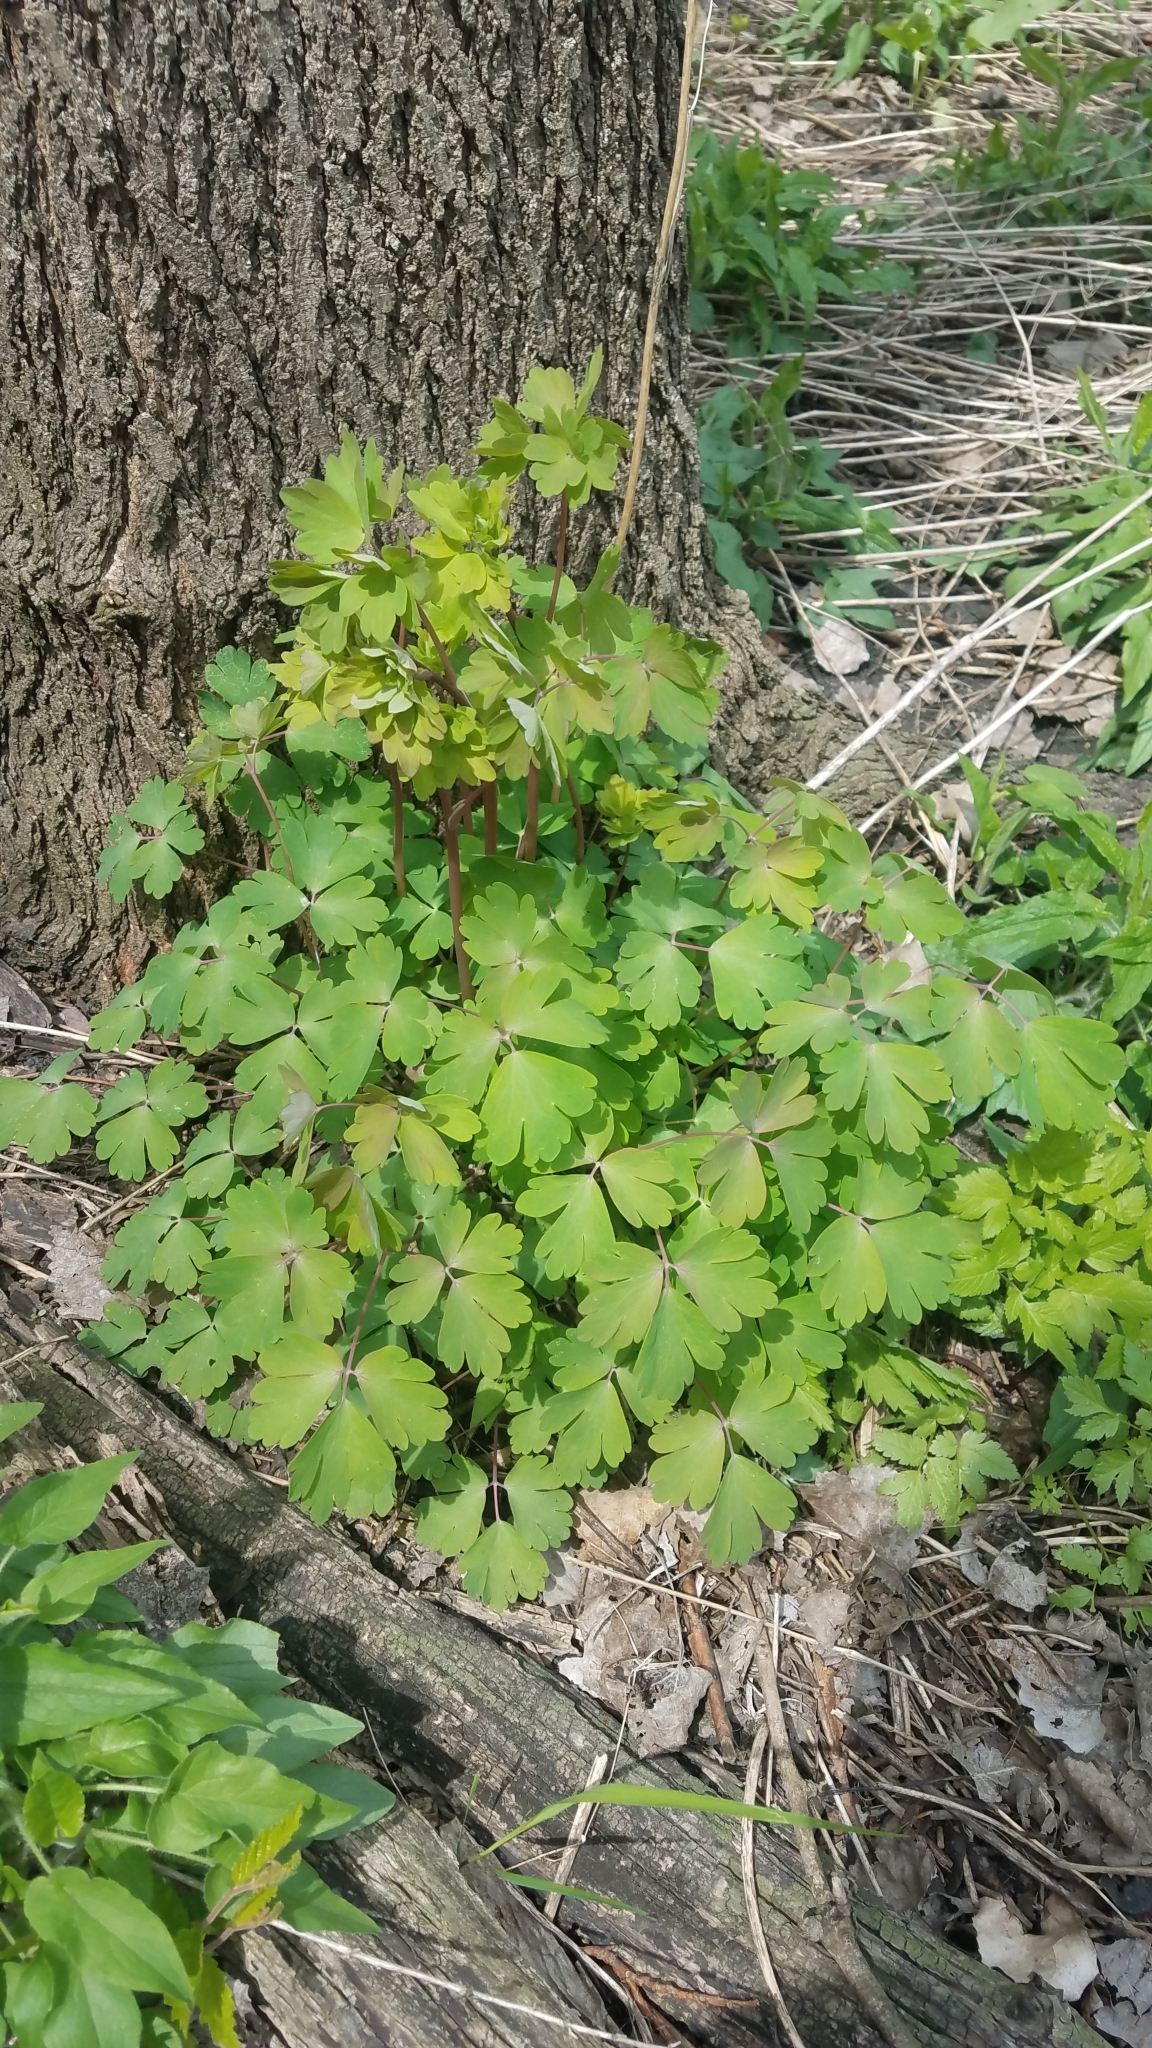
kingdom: Plantae
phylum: Tracheophyta
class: Magnoliopsida
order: Ranunculales
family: Ranunculaceae
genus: Aquilegia
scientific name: Aquilegia canadensis
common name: American columbine
